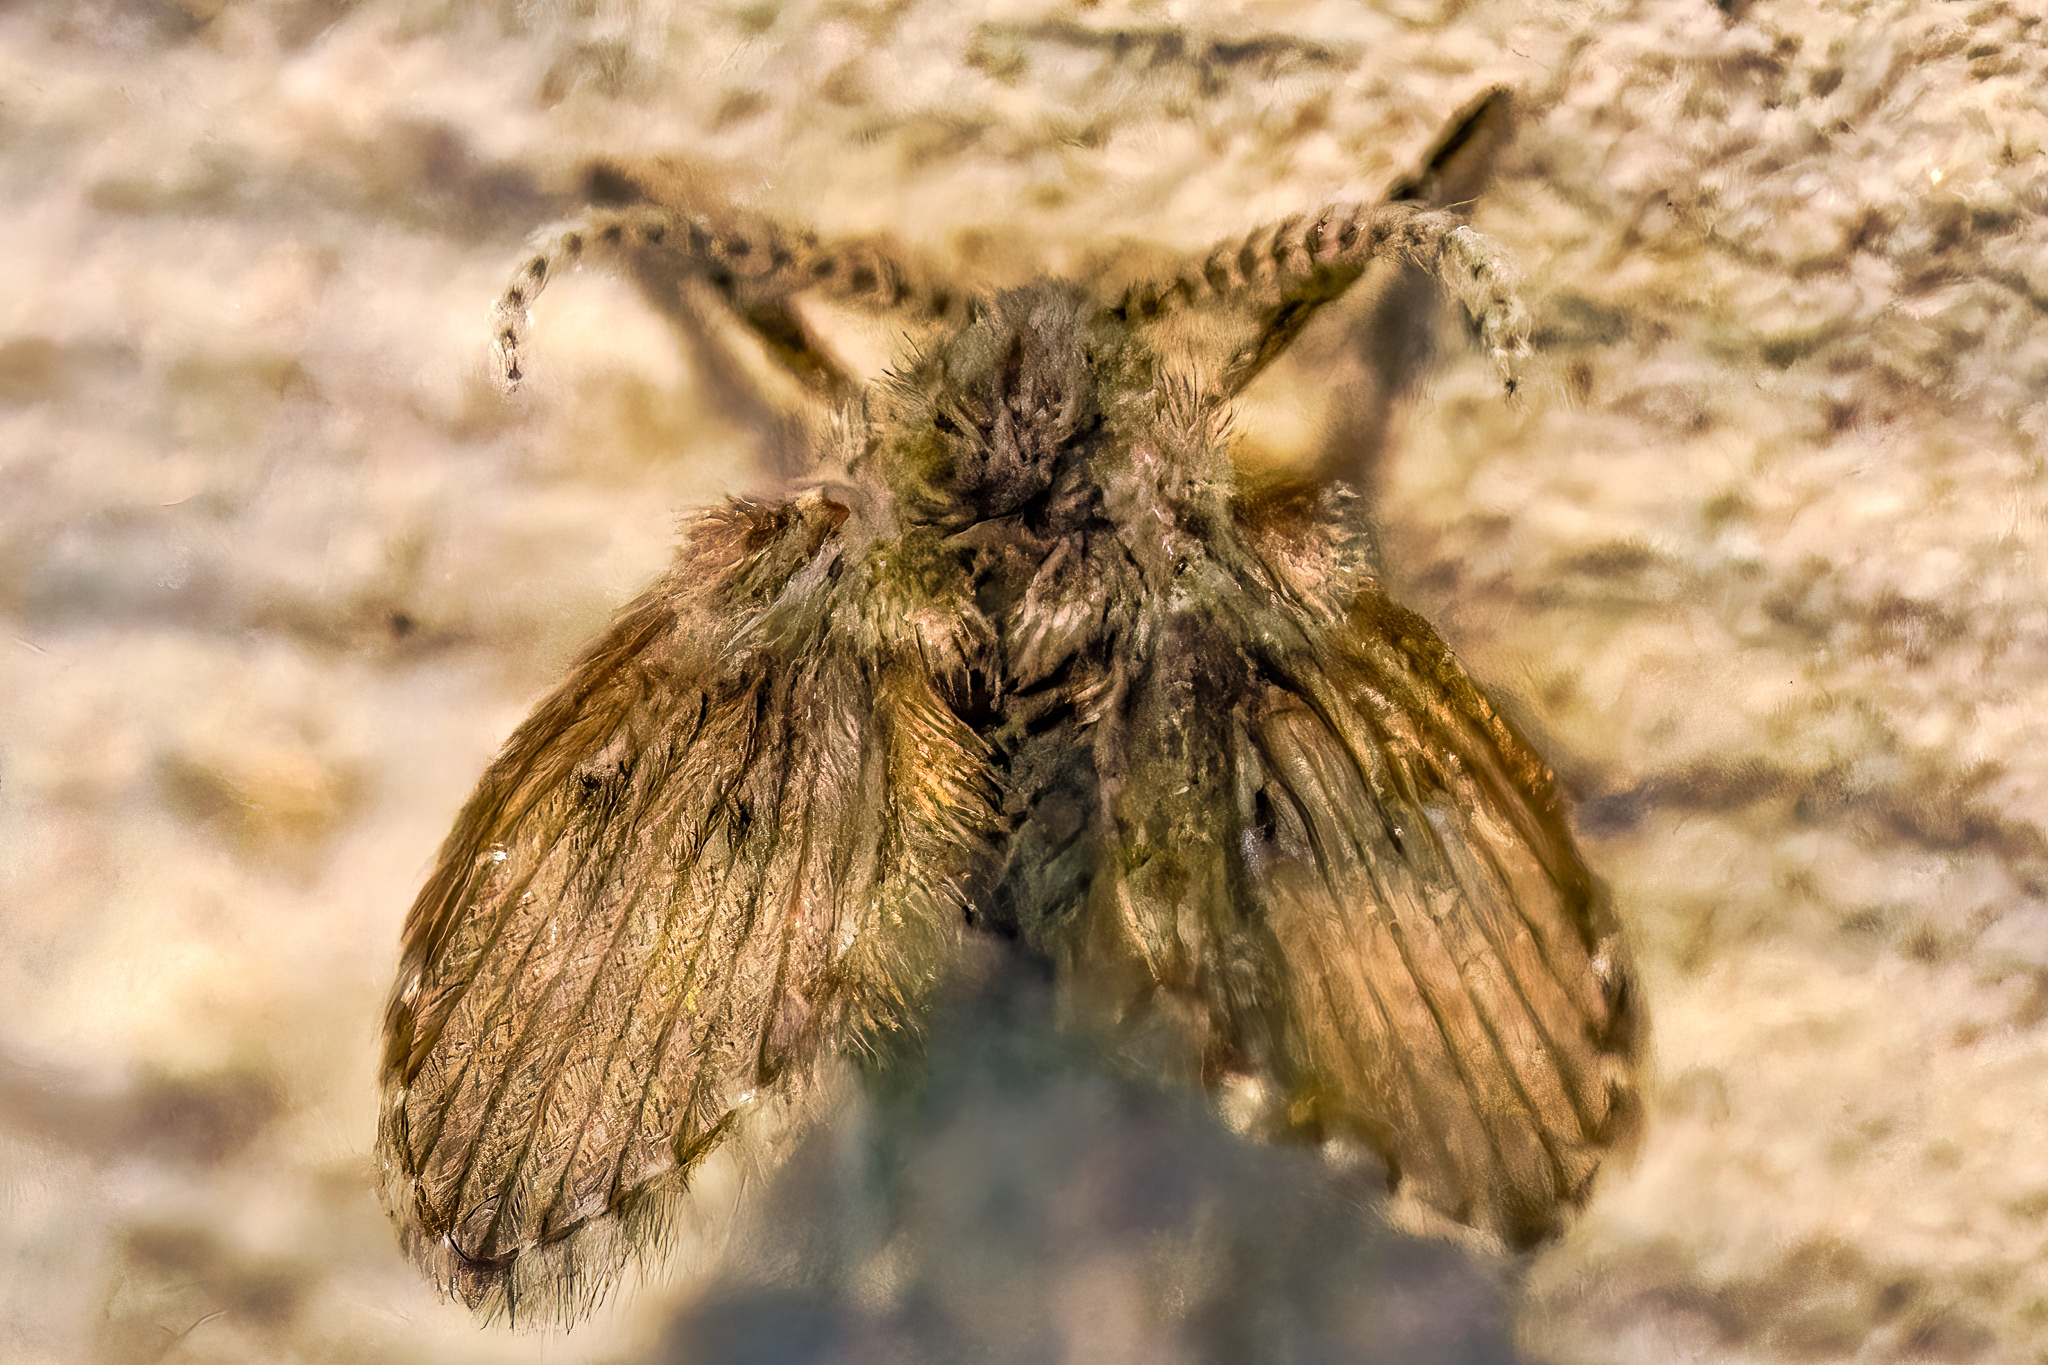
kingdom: Animalia
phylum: Arthropoda
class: Insecta
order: Diptera
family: Psychodidae
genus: Clogmia
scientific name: Clogmia albipunctatus
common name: White-spotted moth fly
